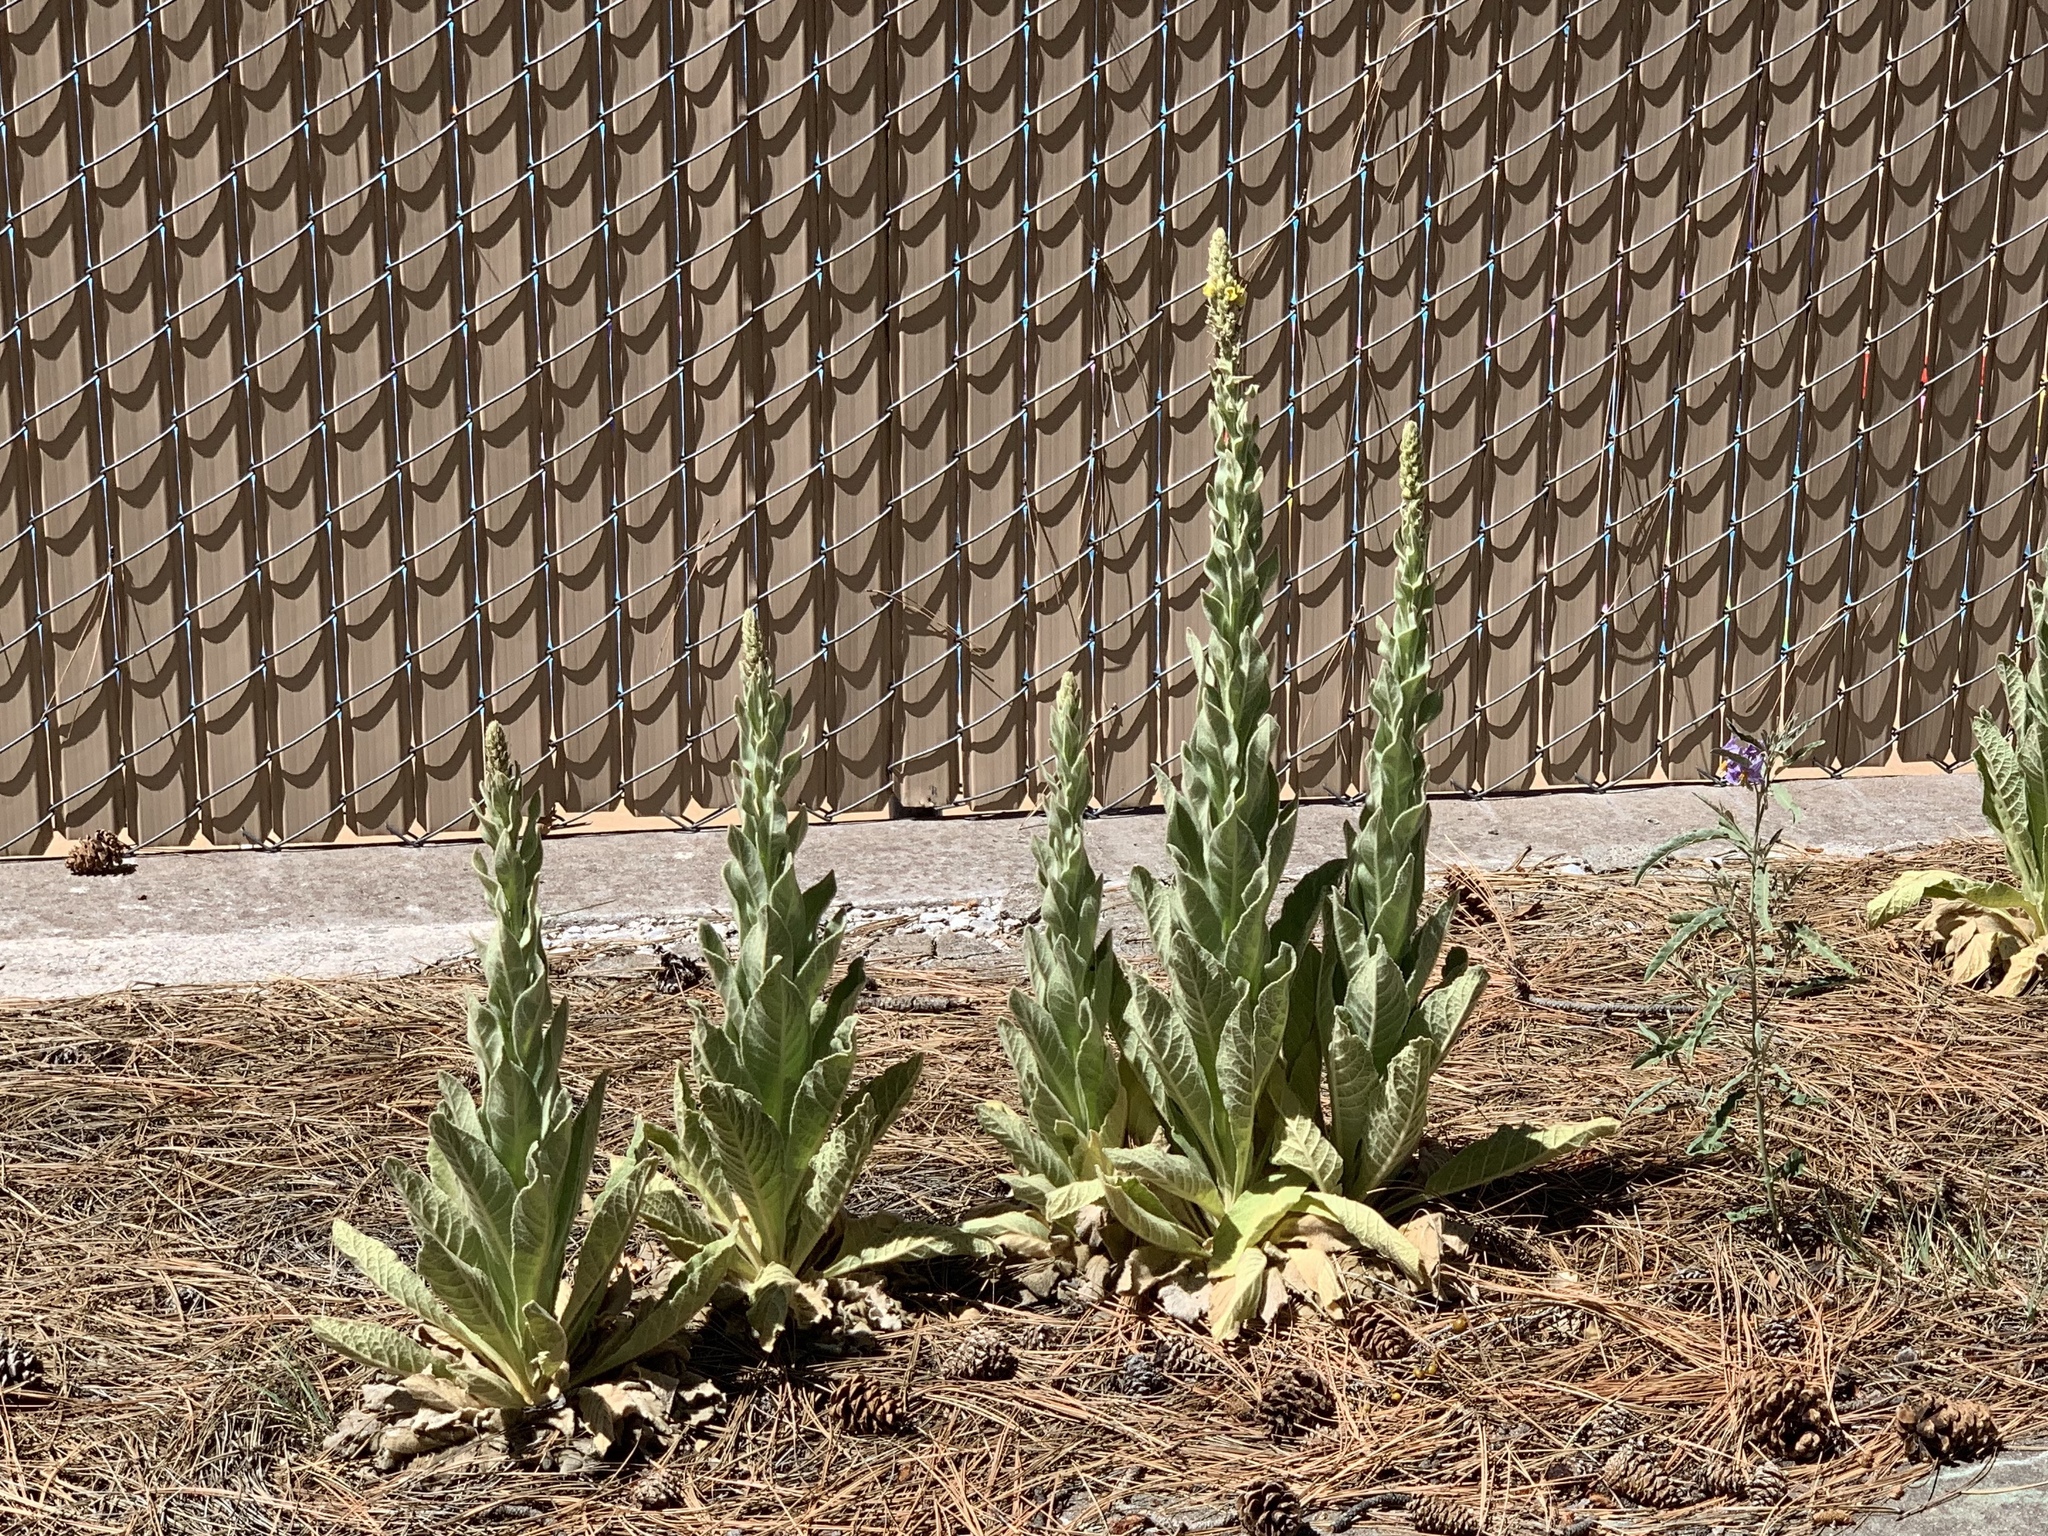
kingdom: Plantae
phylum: Tracheophyta
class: Magnoliopsida
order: Lamiales
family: Scrophulariaceae
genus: Verbascum
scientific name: Verbascum thapsus
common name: Common mullein
